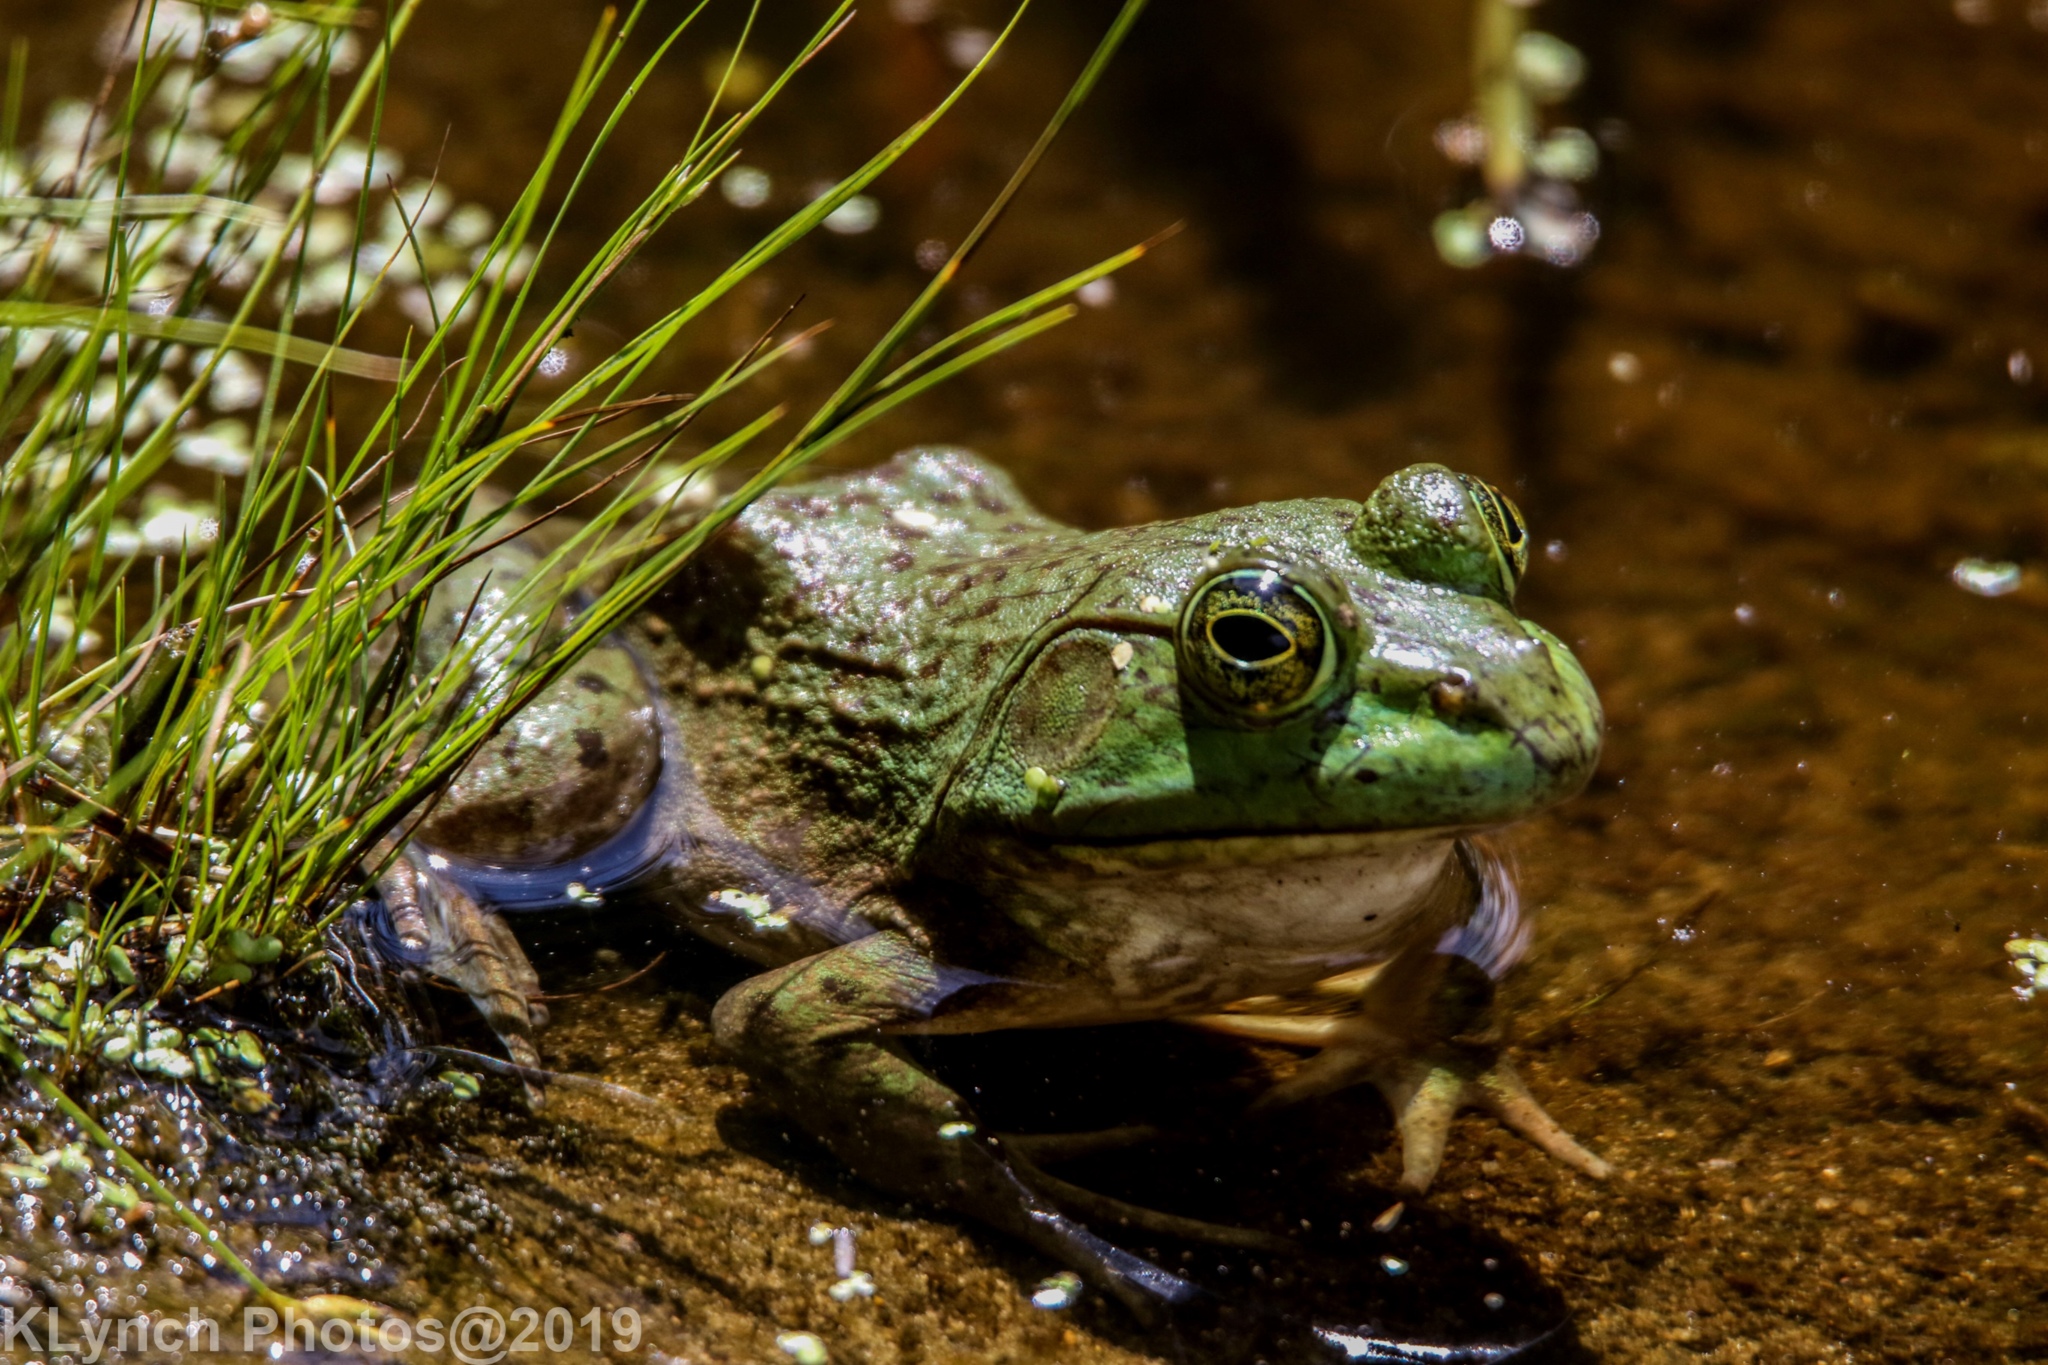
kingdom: Animalia
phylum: Chordata
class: Amphibia
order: Anura
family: Ranidae
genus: Lithobates
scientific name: Lithobates catesbeianus
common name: American bullfrog
